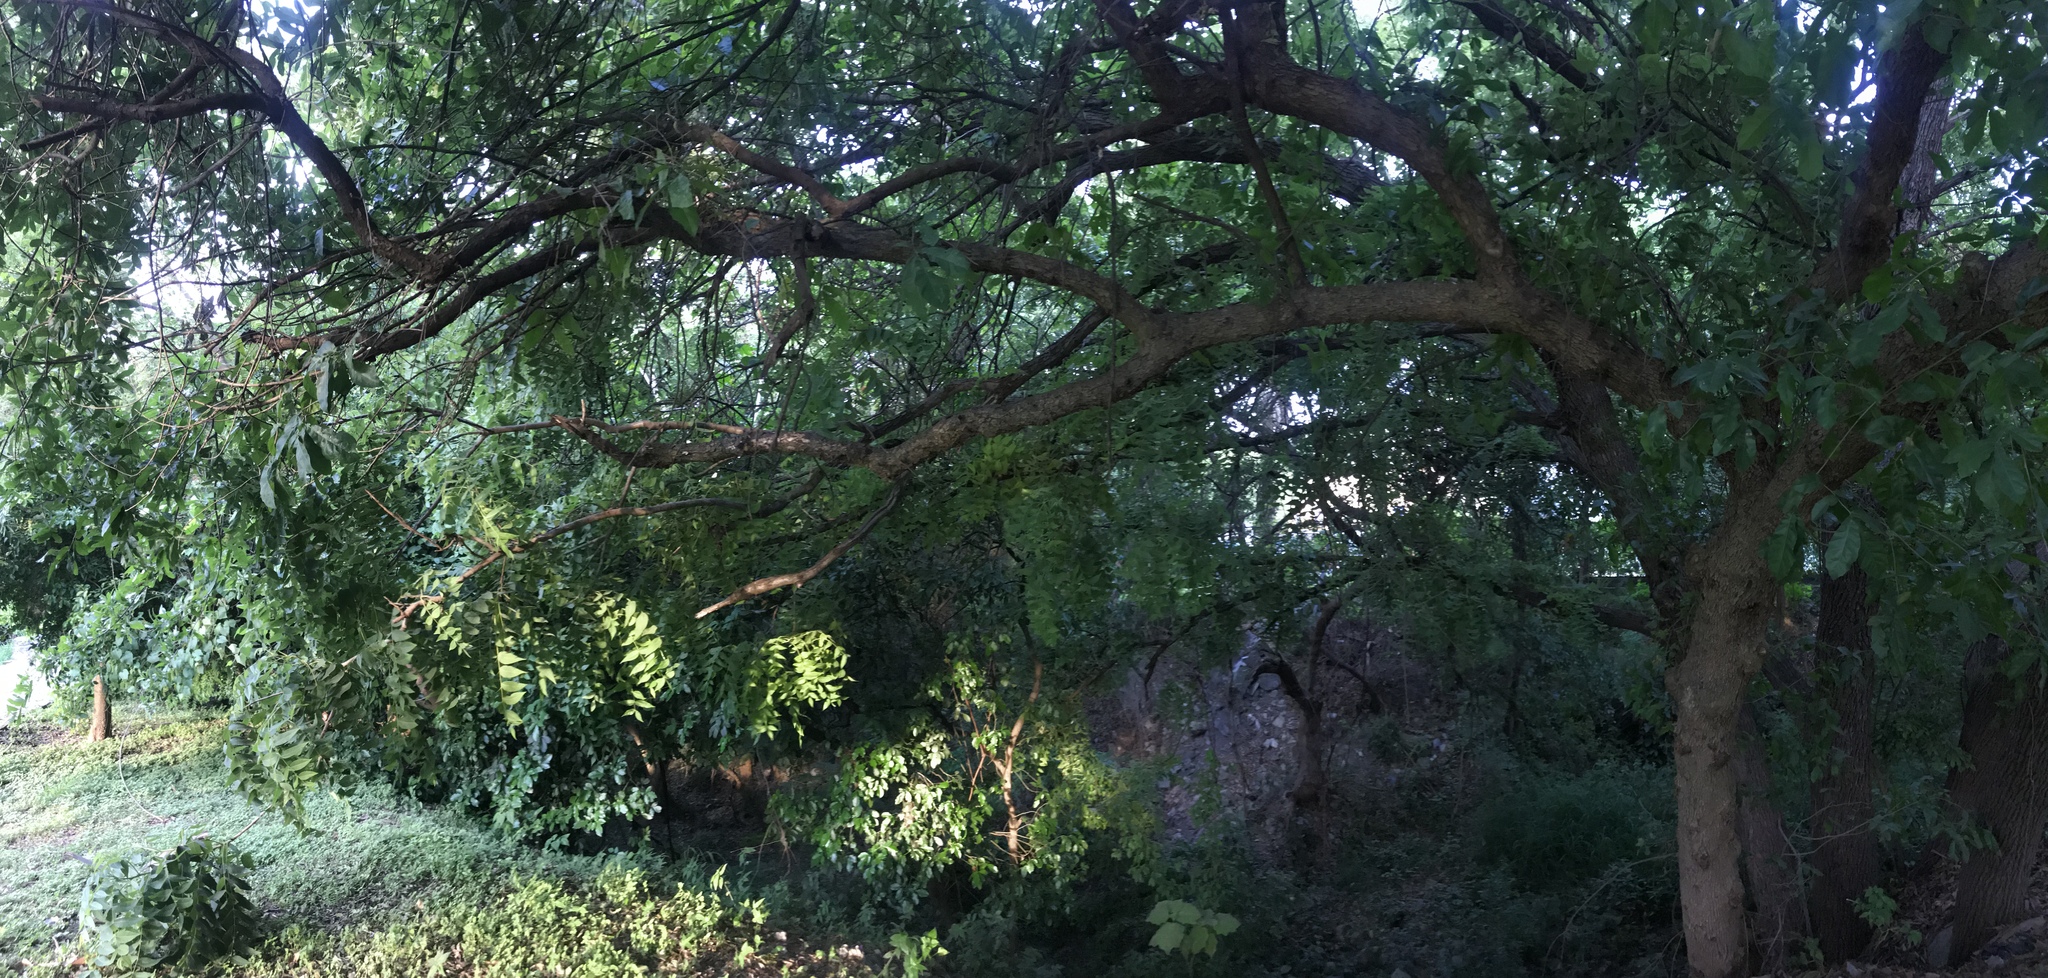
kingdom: Plantae
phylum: Tracheophyta
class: Magnoliopsida
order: Fagales
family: Juglandaceae
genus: Juglans
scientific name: Juglans nigra
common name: Black walnut
